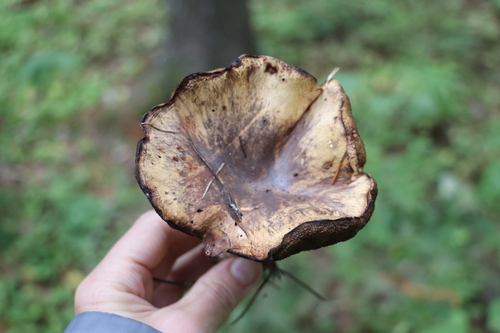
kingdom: Fungi
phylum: Basidiomycota
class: Agaricomycetes
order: Boletales
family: Suillaceae
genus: Suillus
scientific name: Suillus placidus
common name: Slippery white bolete
